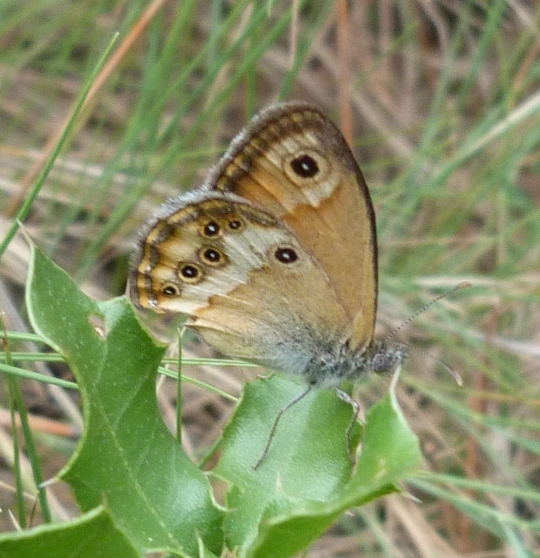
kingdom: Animalia
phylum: Arthropoda
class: Insecta
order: Lepidoptera
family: Nymphalidae
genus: Coenonympha
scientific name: Coenonympha dorus
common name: Dusky heath
